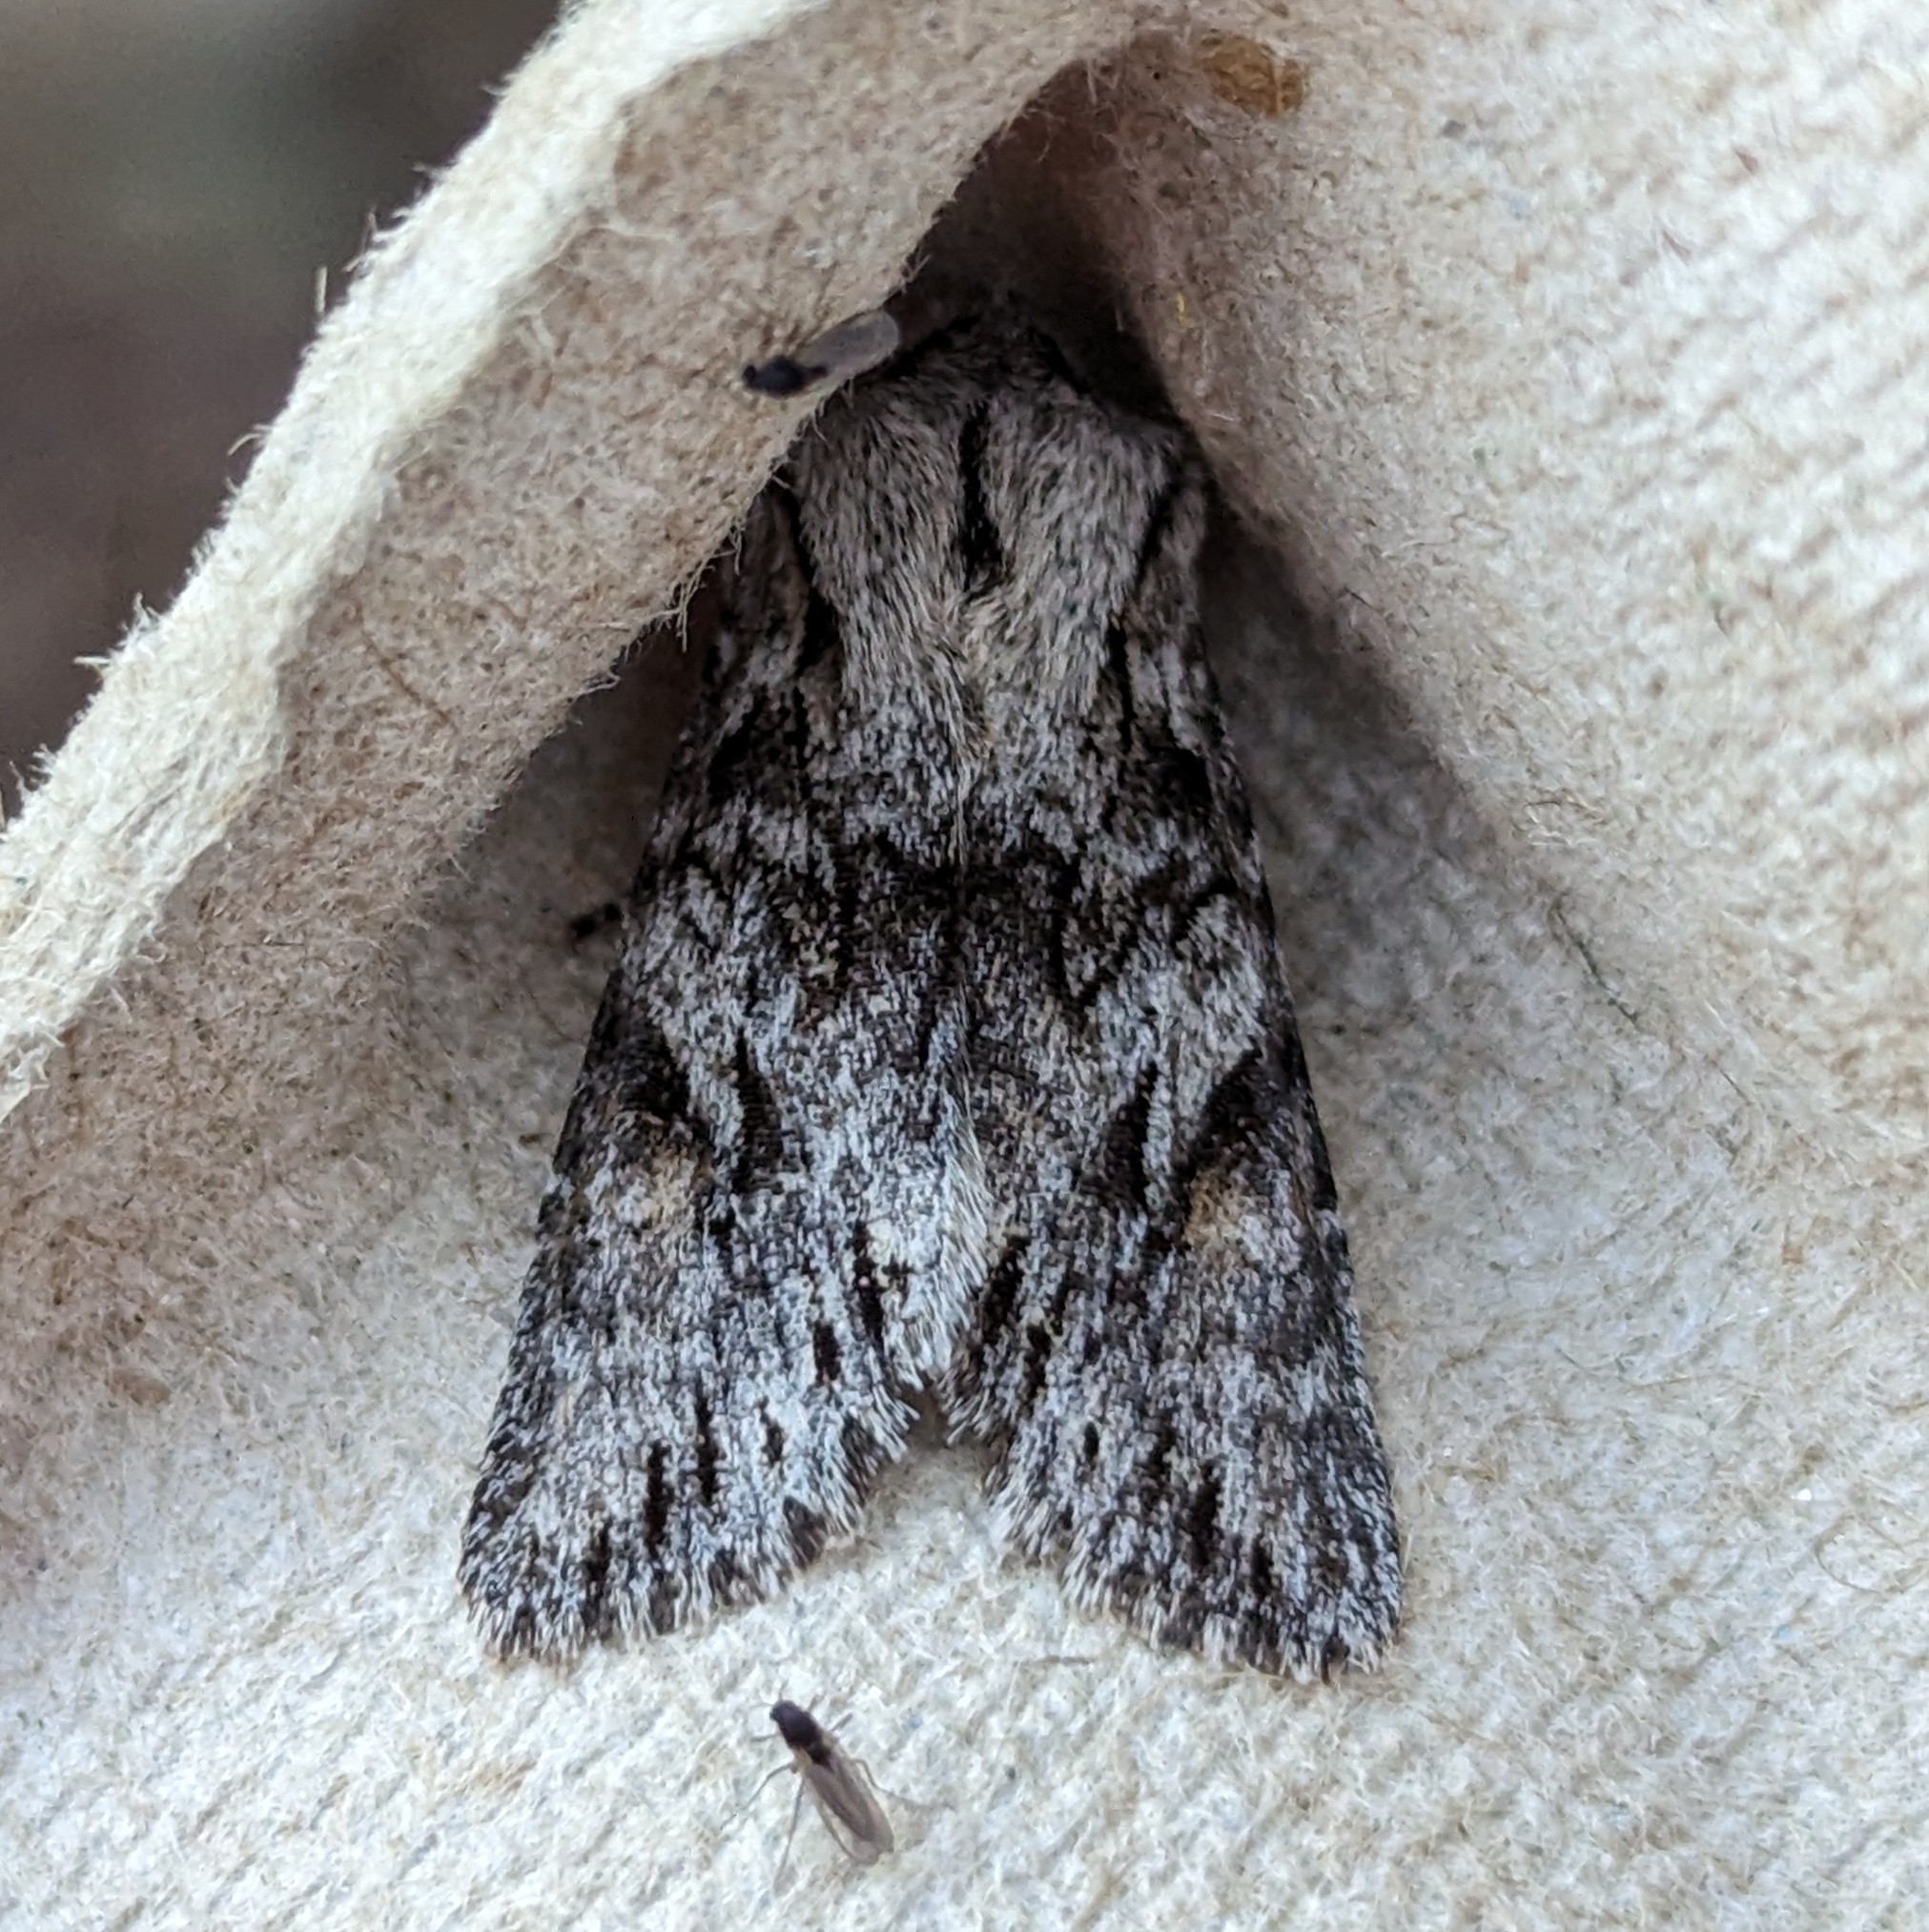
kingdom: Animalia
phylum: Arthropoda
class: Insecta
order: Lepidoptera
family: Noctuidae
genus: Egira
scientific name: Egira simplex
